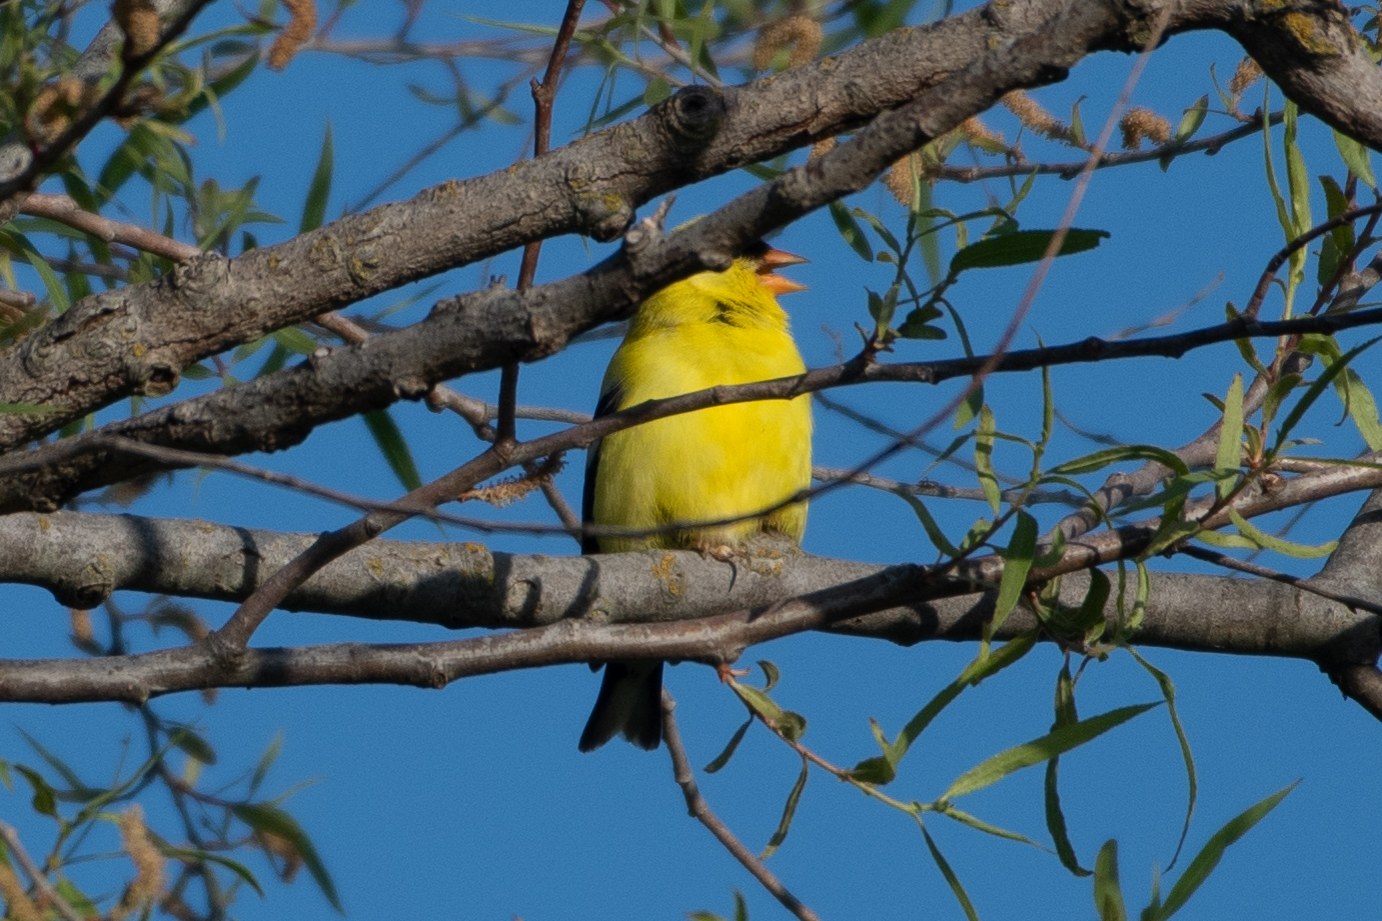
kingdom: Animalia
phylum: Chordata
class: Aves
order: Passeriformes
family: Fringillidae
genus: Spinus
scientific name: Spinus tristis
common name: American goldfinch
